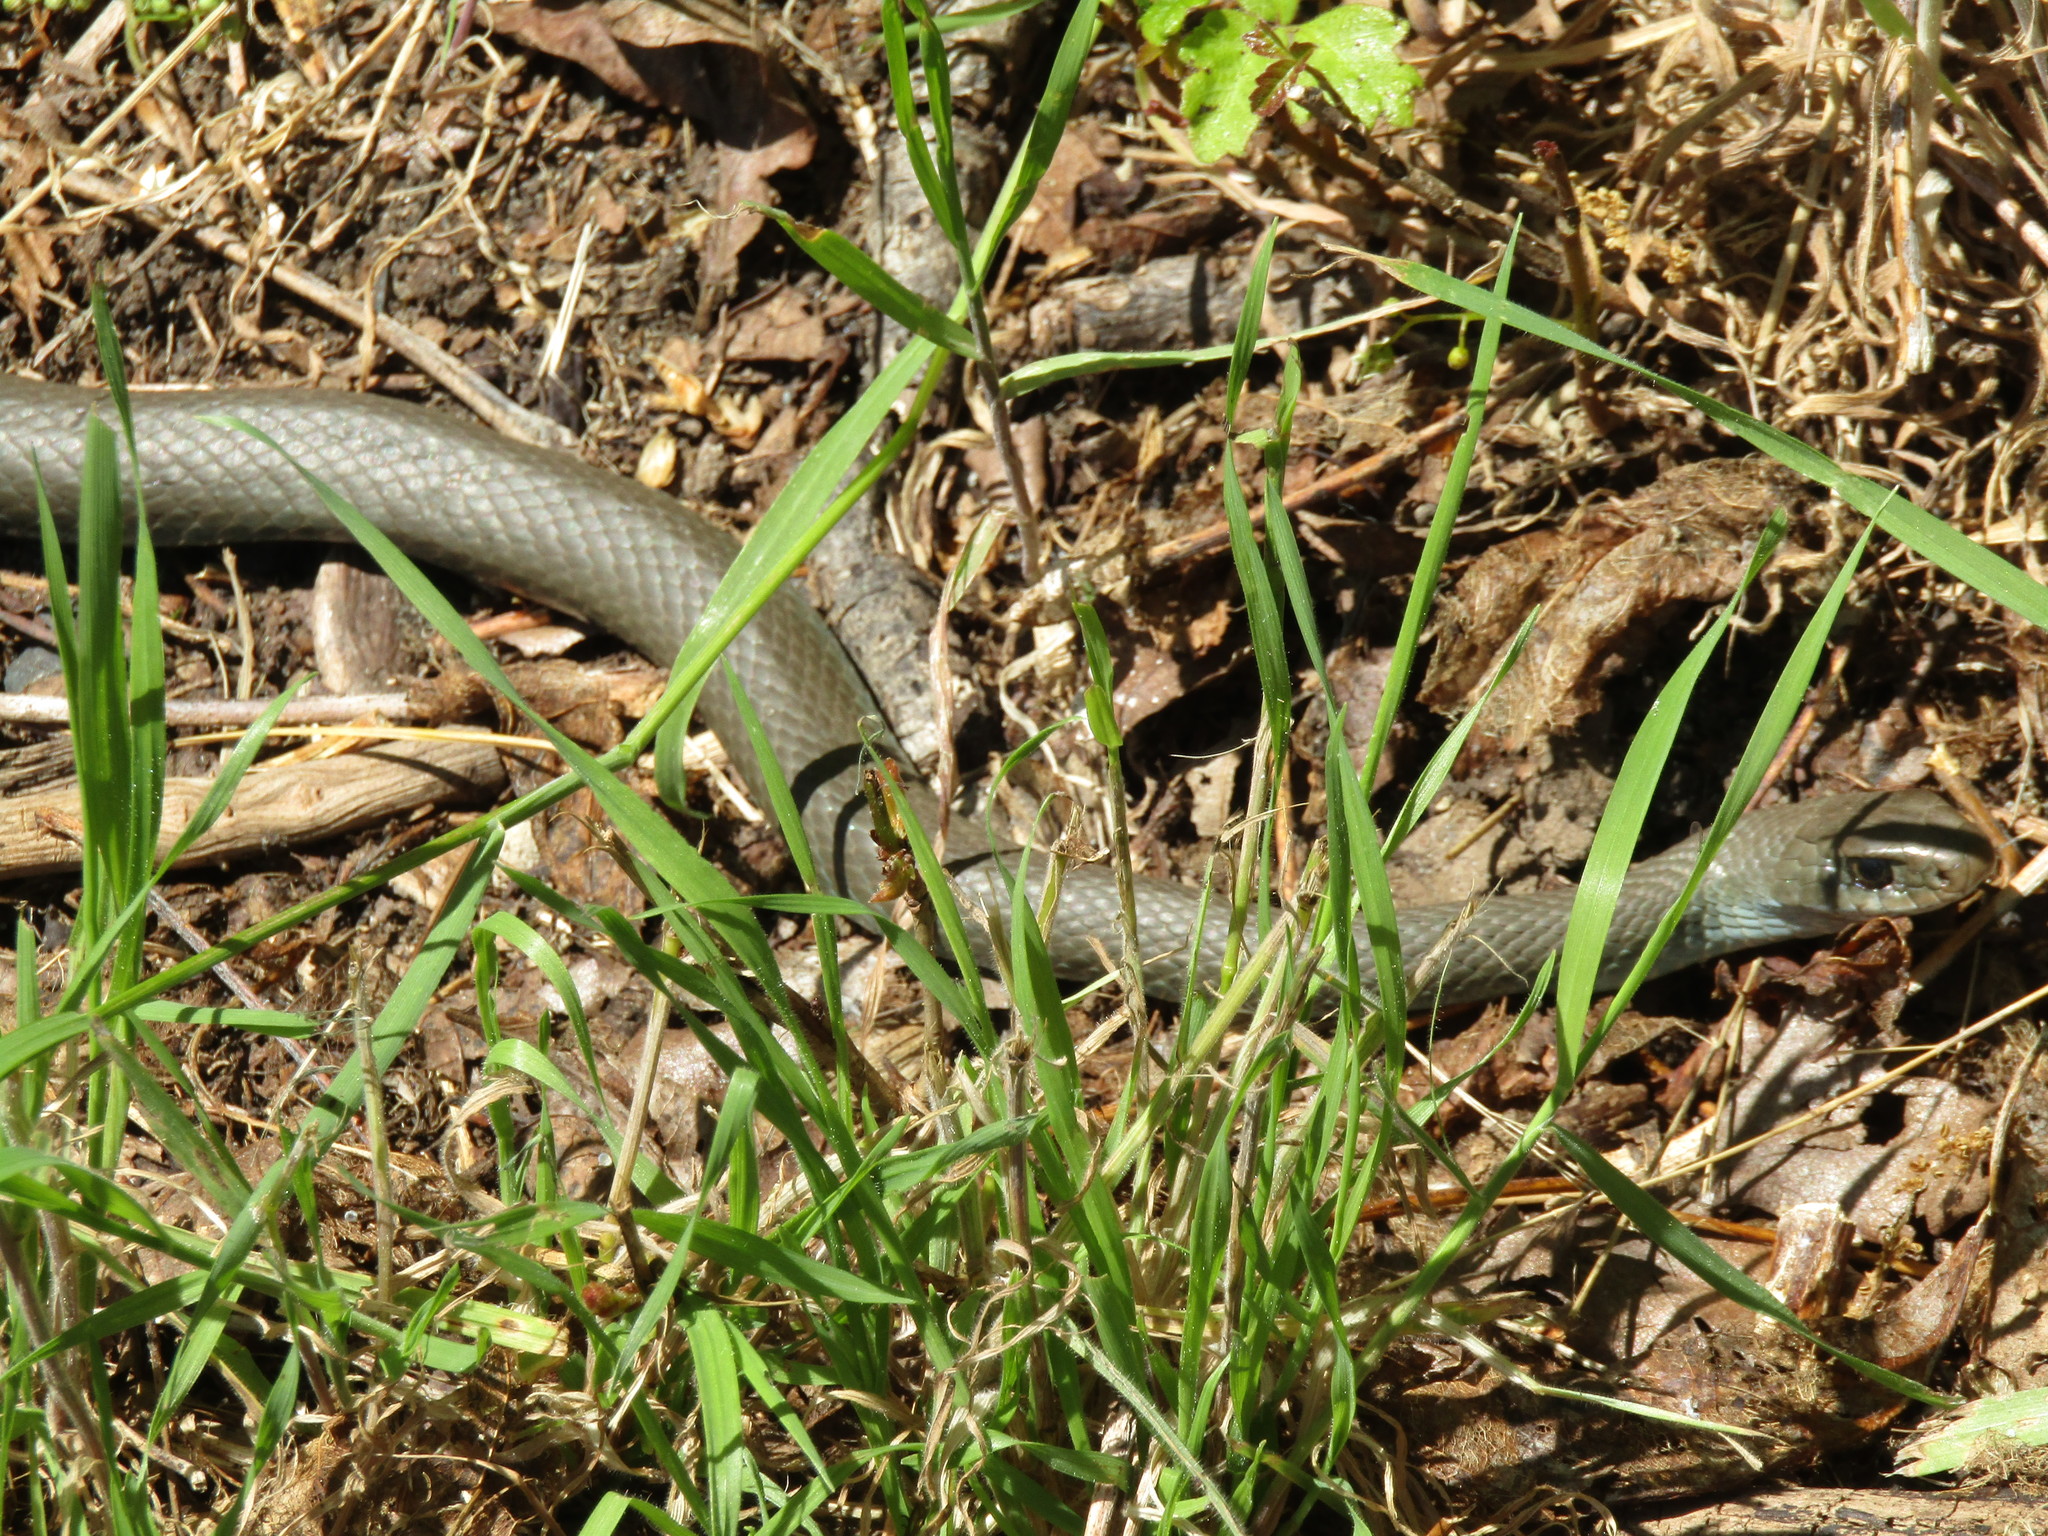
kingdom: Animalia
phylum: Chordata
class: Squamata
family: Colubridae
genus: Coluber
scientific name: Coluber constrictor
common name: Eastern racer
